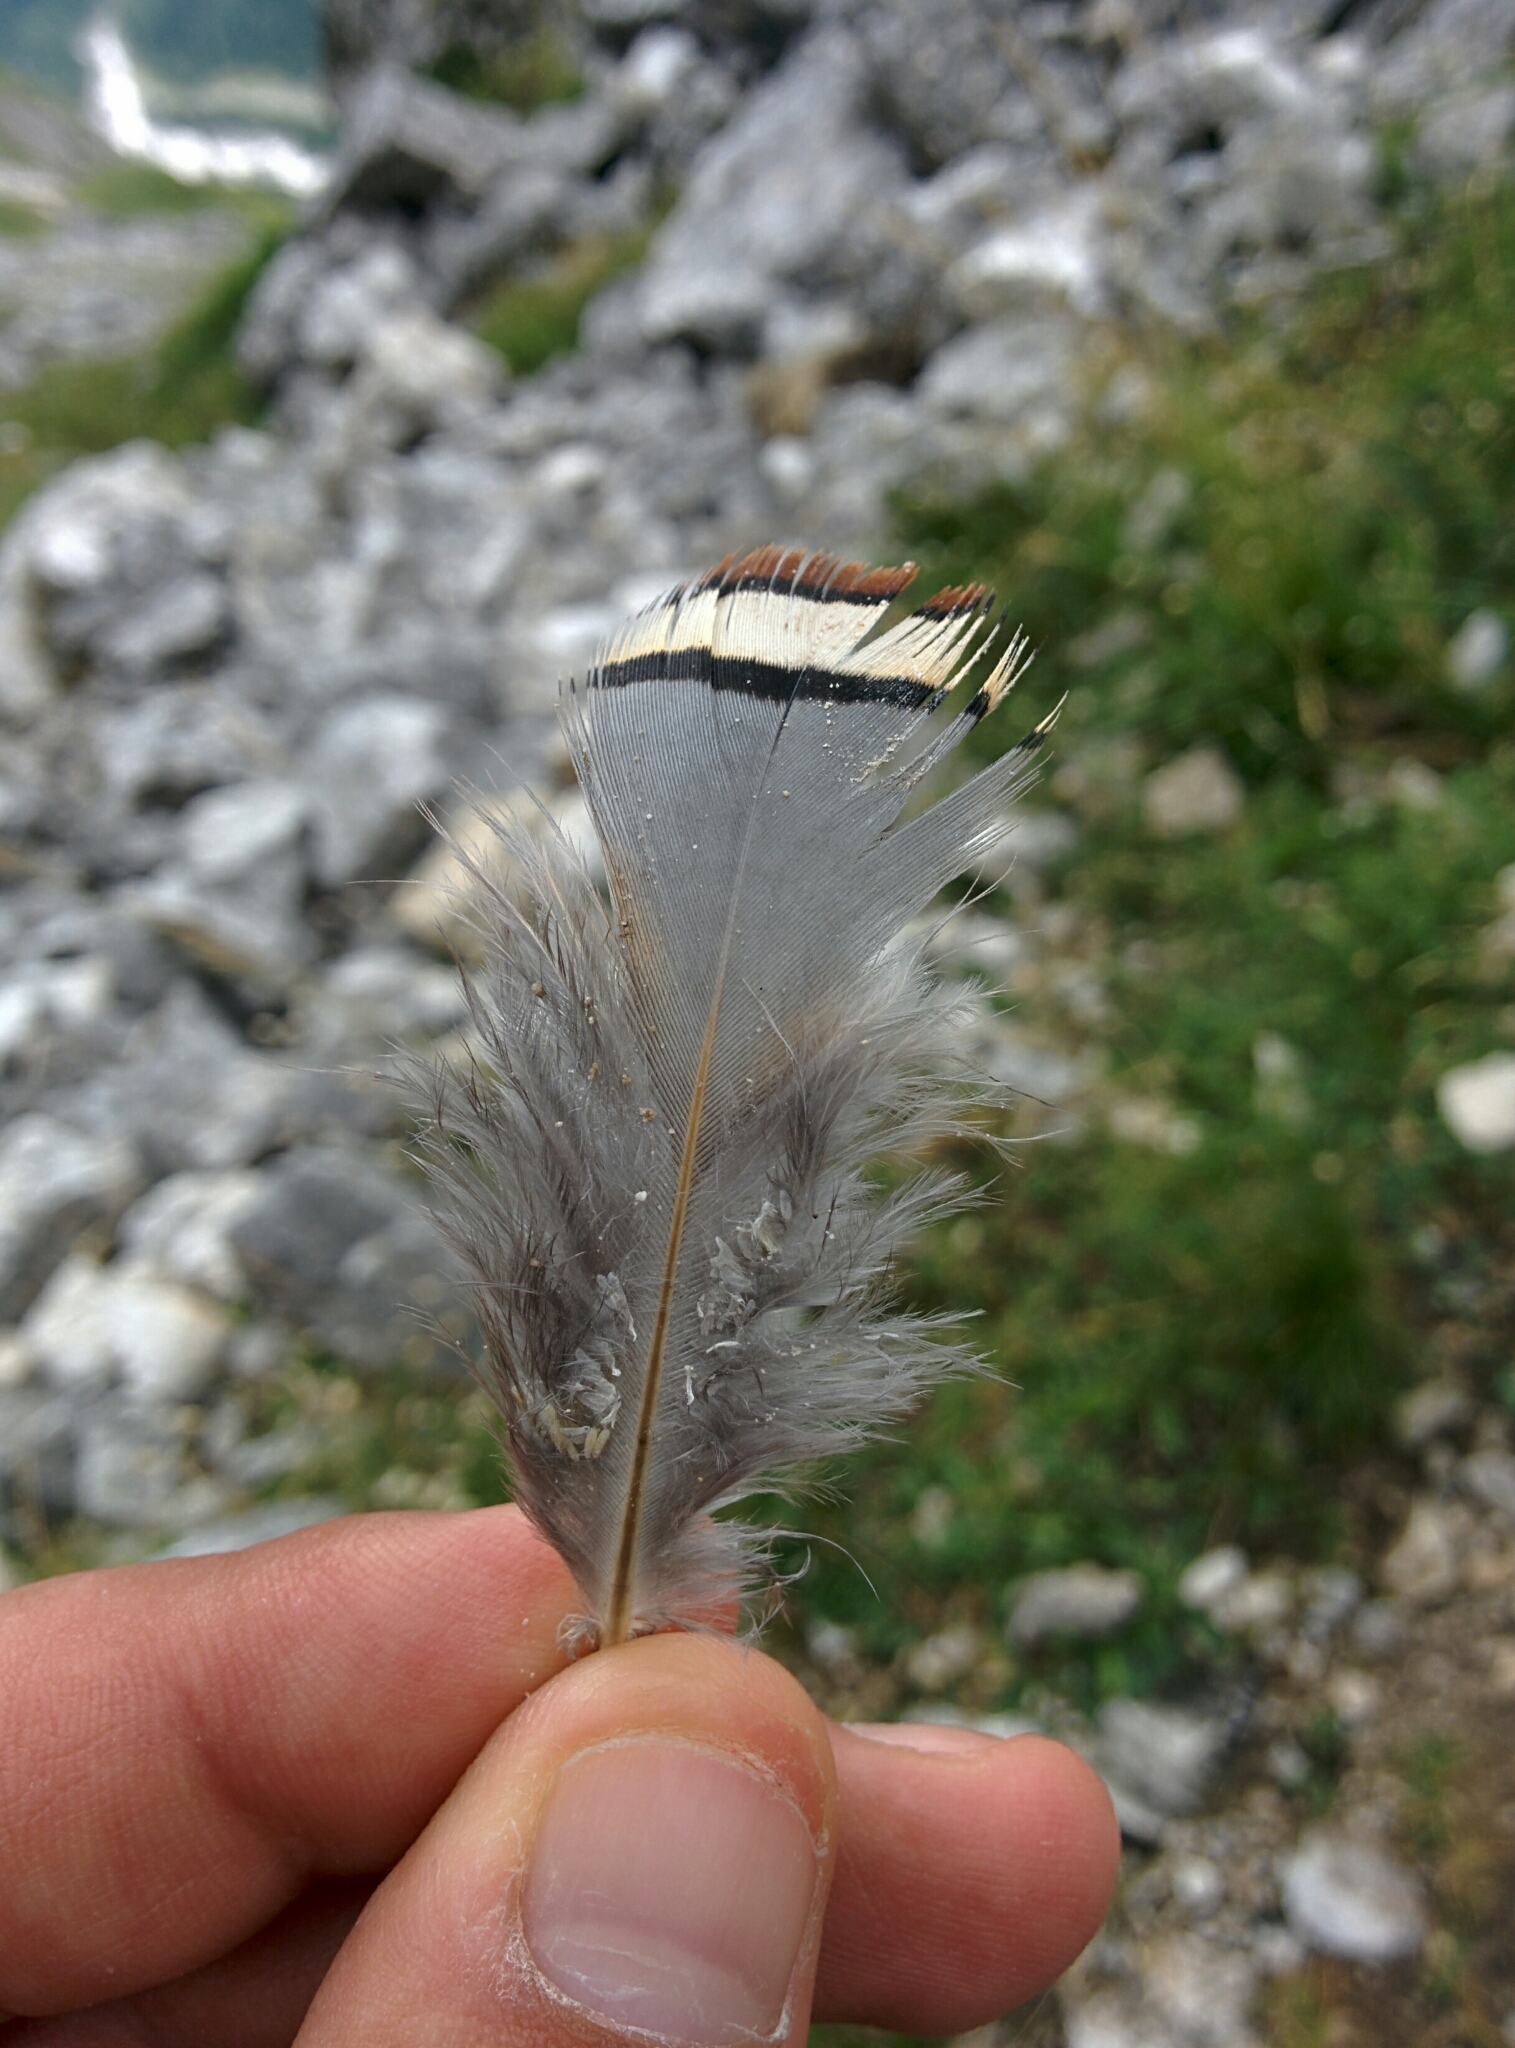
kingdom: Animalia
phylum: Chordata
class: Aves
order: Galliformes
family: Phasianidae
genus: Alectoris
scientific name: Alectoris graeca
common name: Rock partridge
